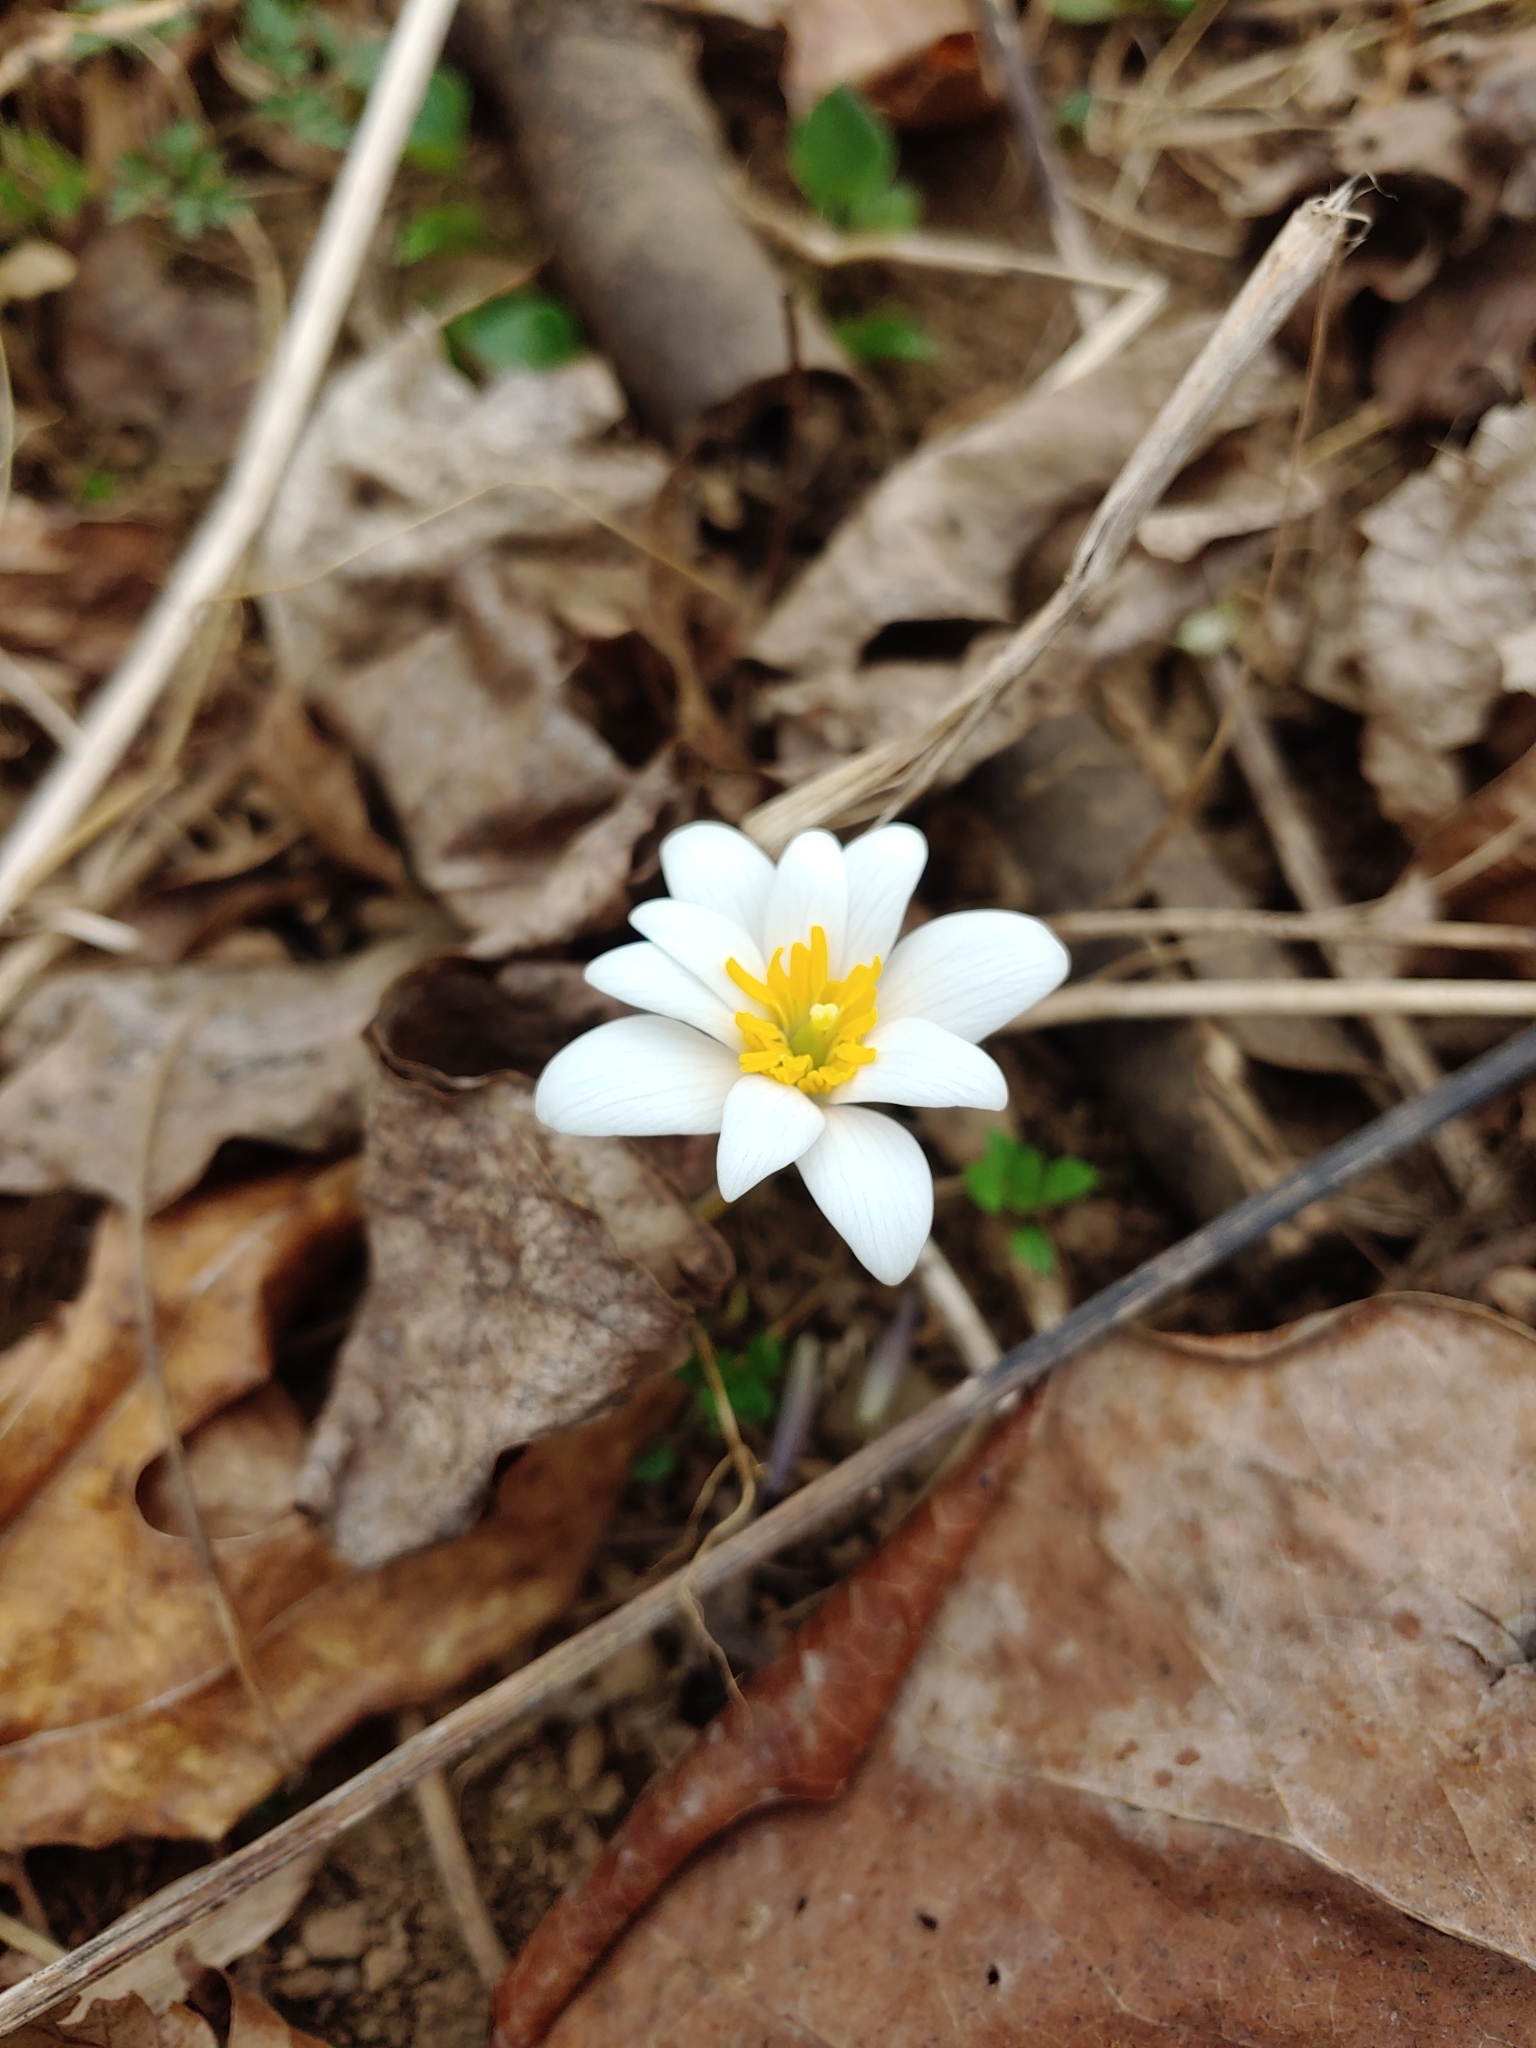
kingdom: Plantae
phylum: Tracheophyta
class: Magnoliopsida
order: Ranunculales
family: Papaveraceae
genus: Sanguinaria
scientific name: Sanguinaria canadensis
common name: Bloodroot
